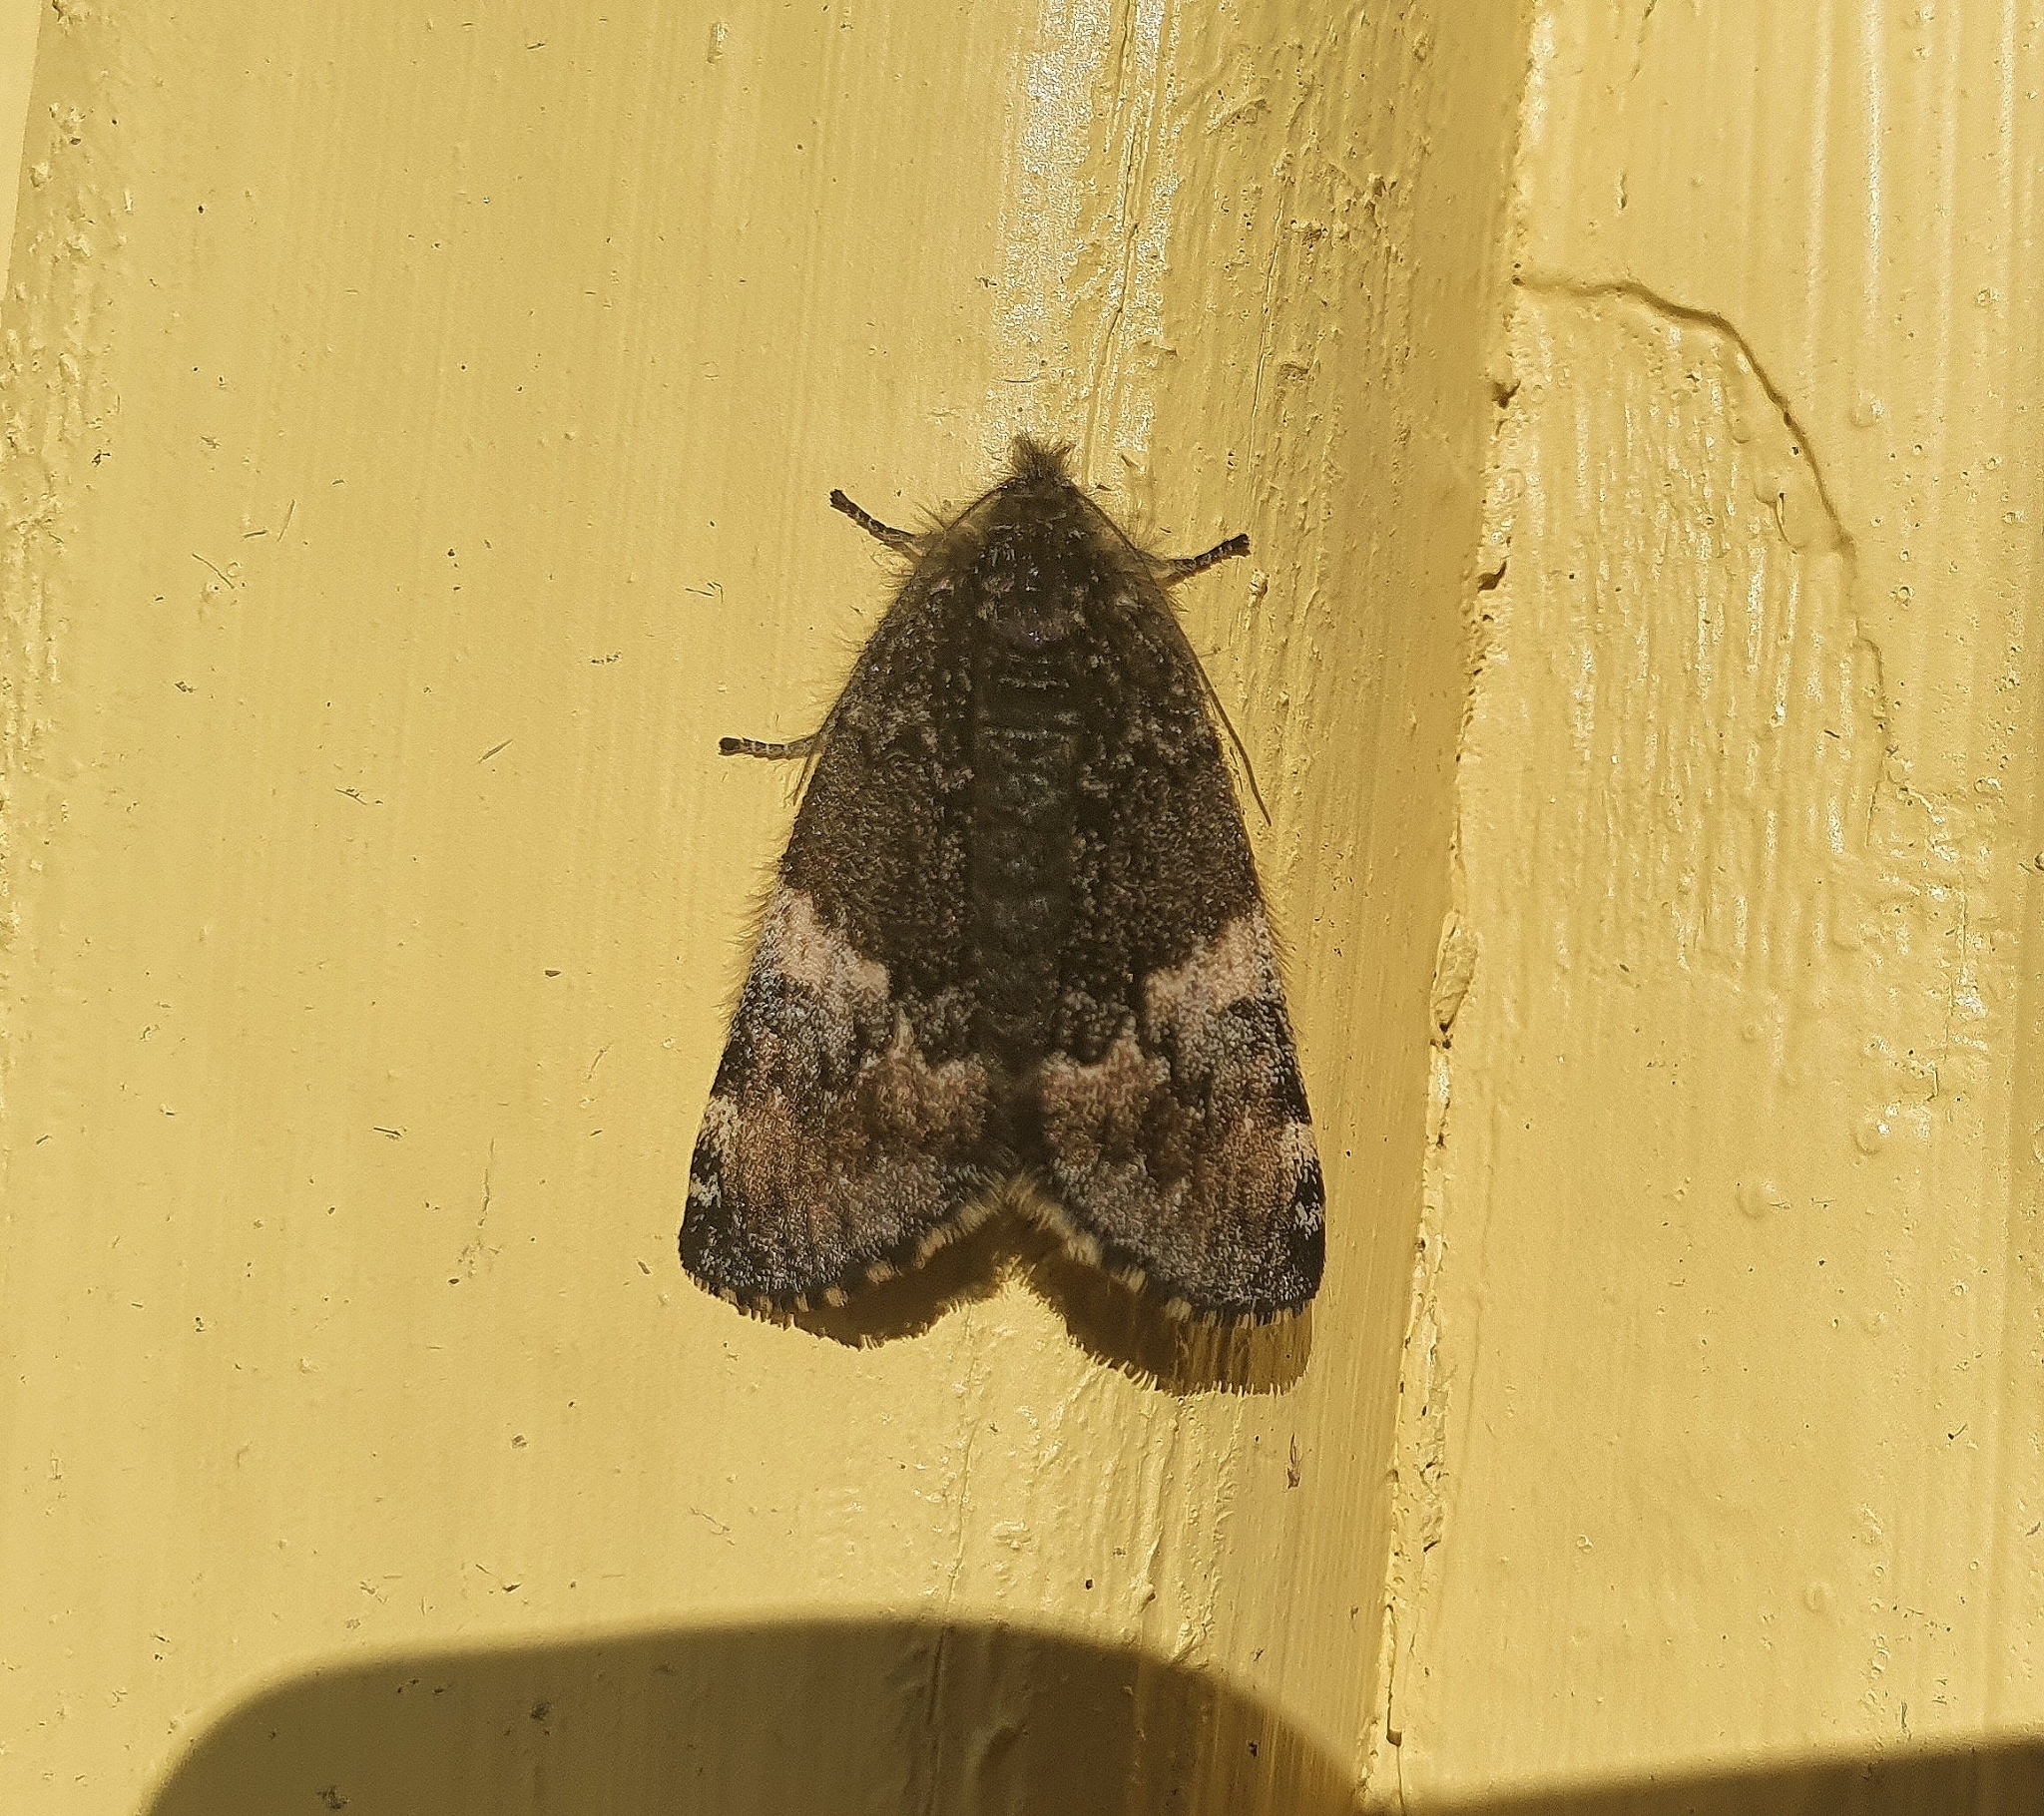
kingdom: Animalia
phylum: Arthropoda
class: Insecta
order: Lepidoptera
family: Geometridae
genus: Archiearis
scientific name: Archiearis parthenias
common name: Orange underwing
